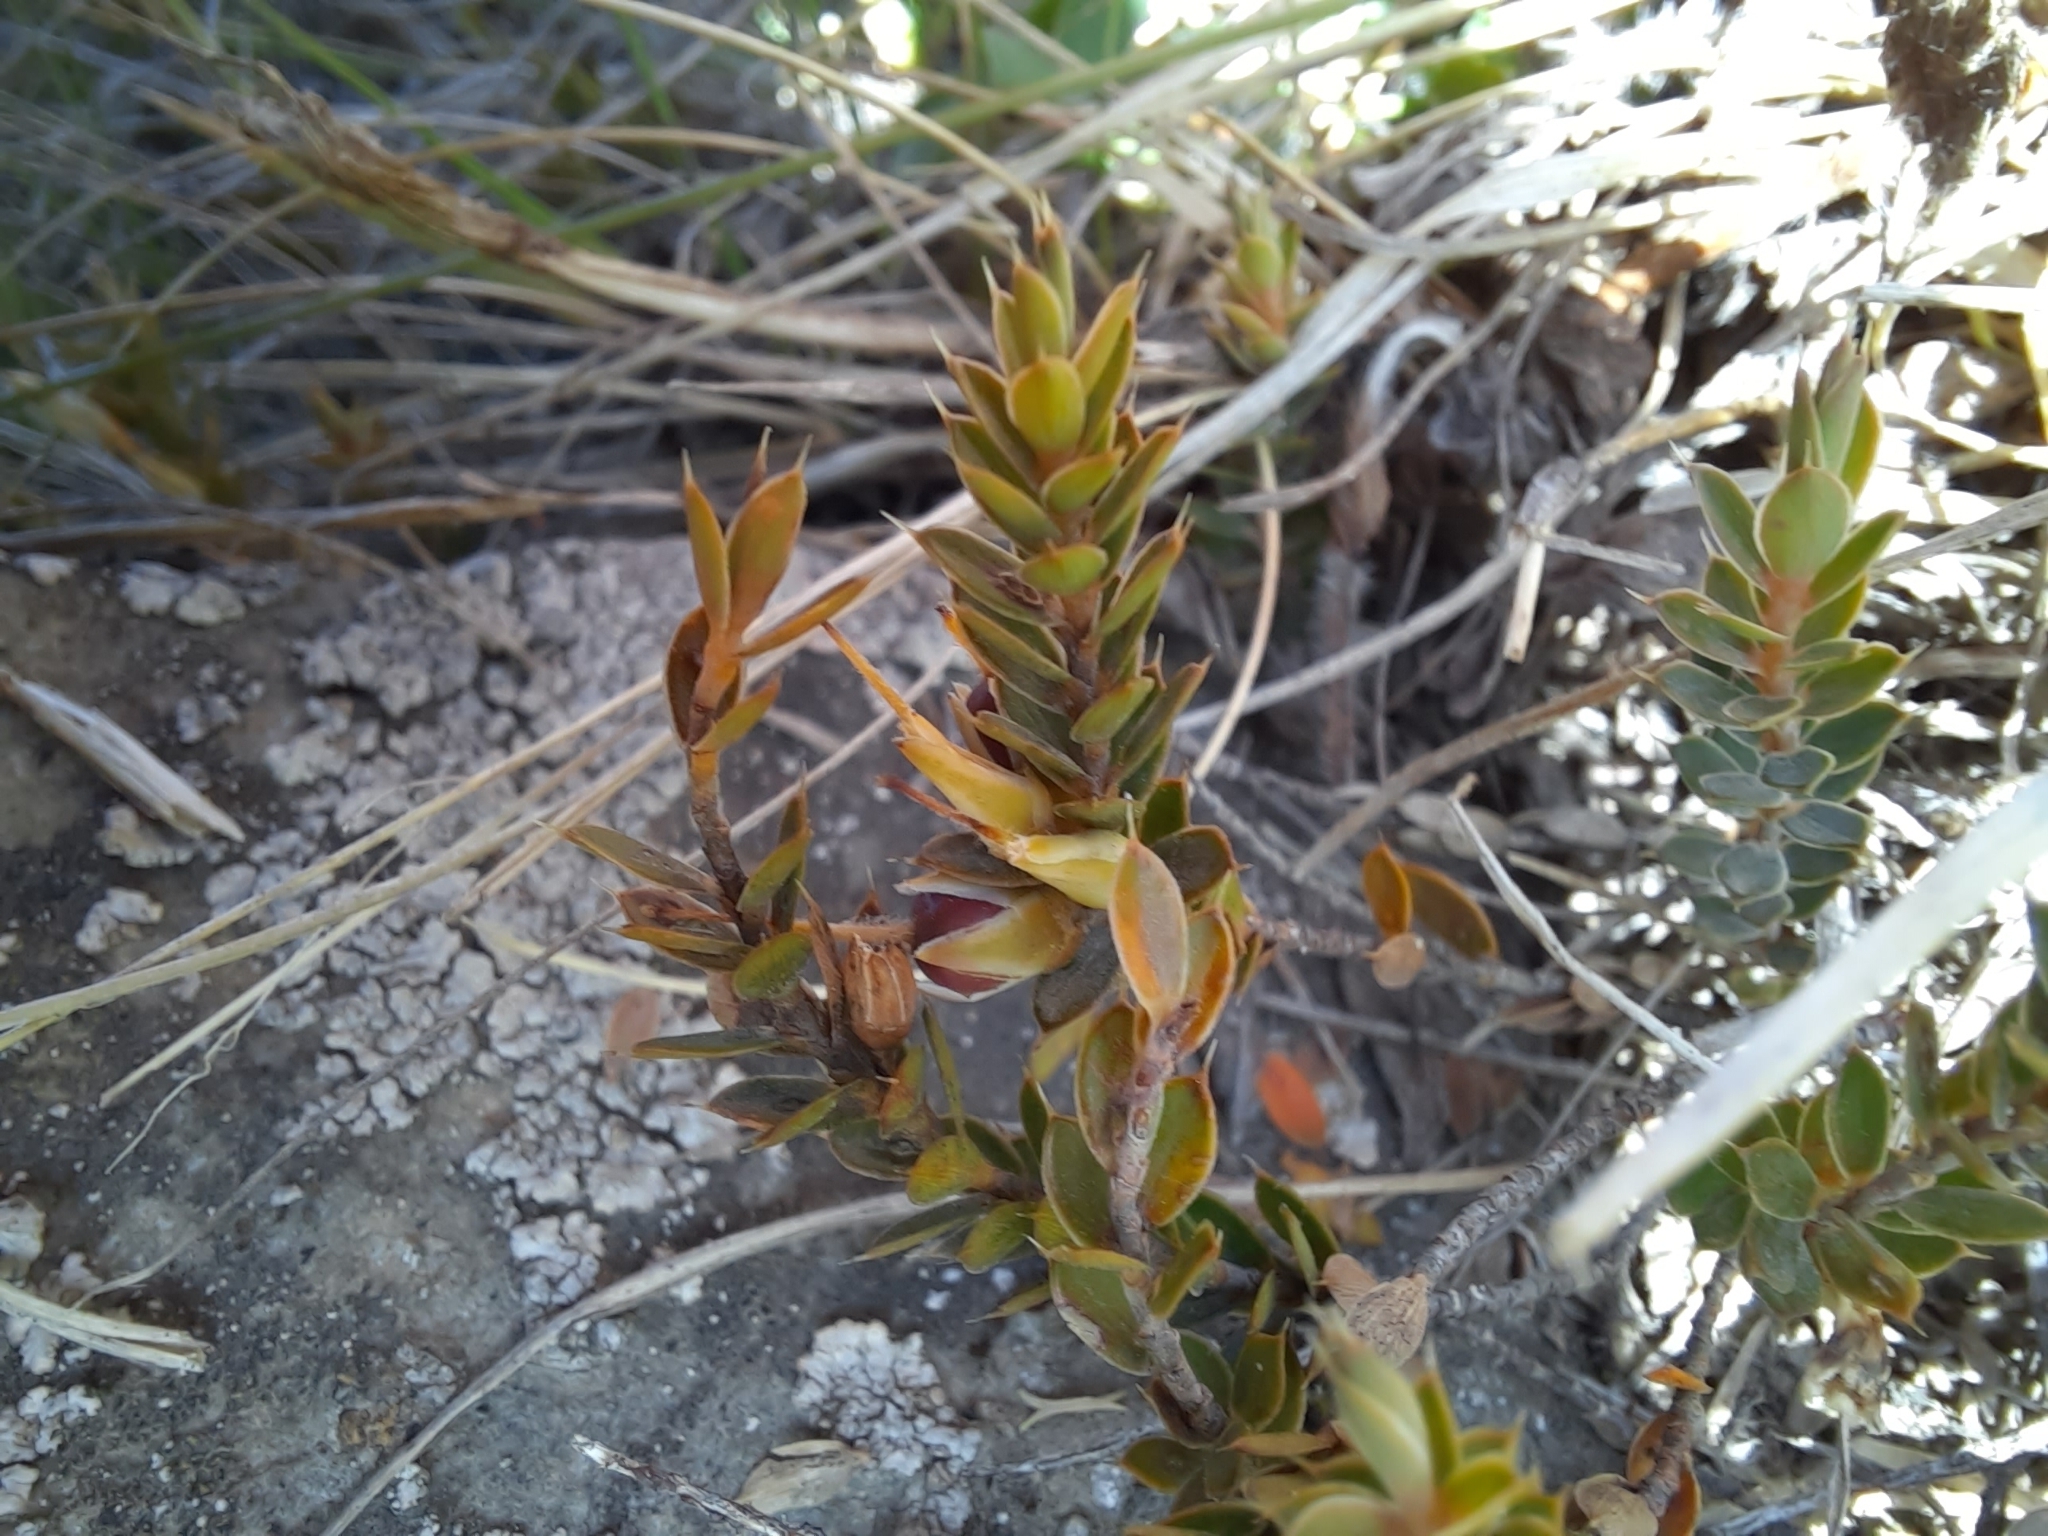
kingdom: Plantae
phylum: Tracheophyta
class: Magnoliopsida
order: Ericales
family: Ericaceae
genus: Styphelia
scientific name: Styphelia nesophila
